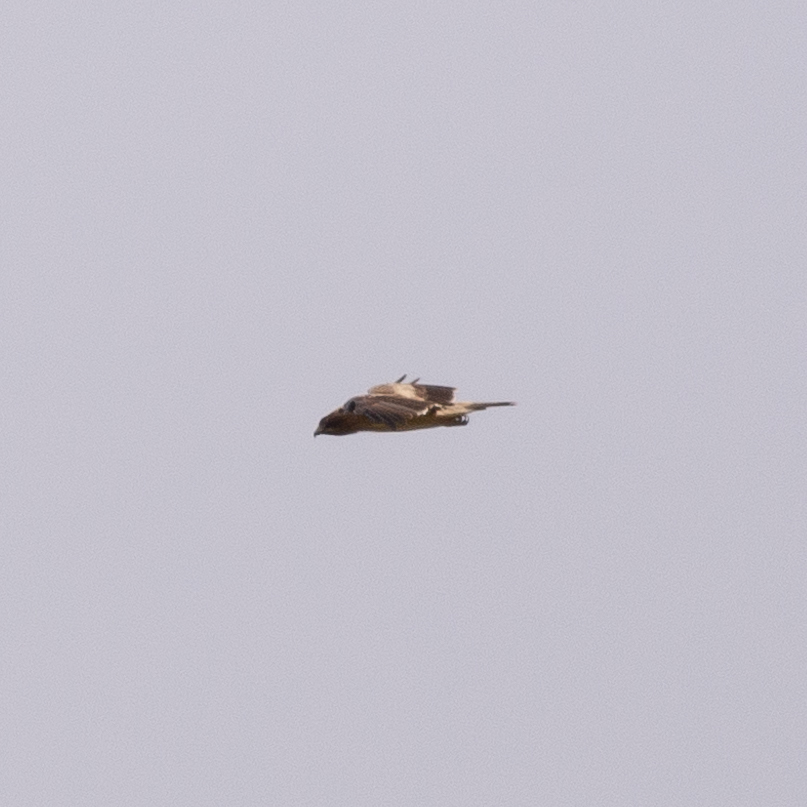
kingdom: Animalia
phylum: Chordata
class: Aves
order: Accipitriformes
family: Accipitridae
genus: Hieraaetus
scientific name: Hieraaetus pennatus
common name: Booted eagle
